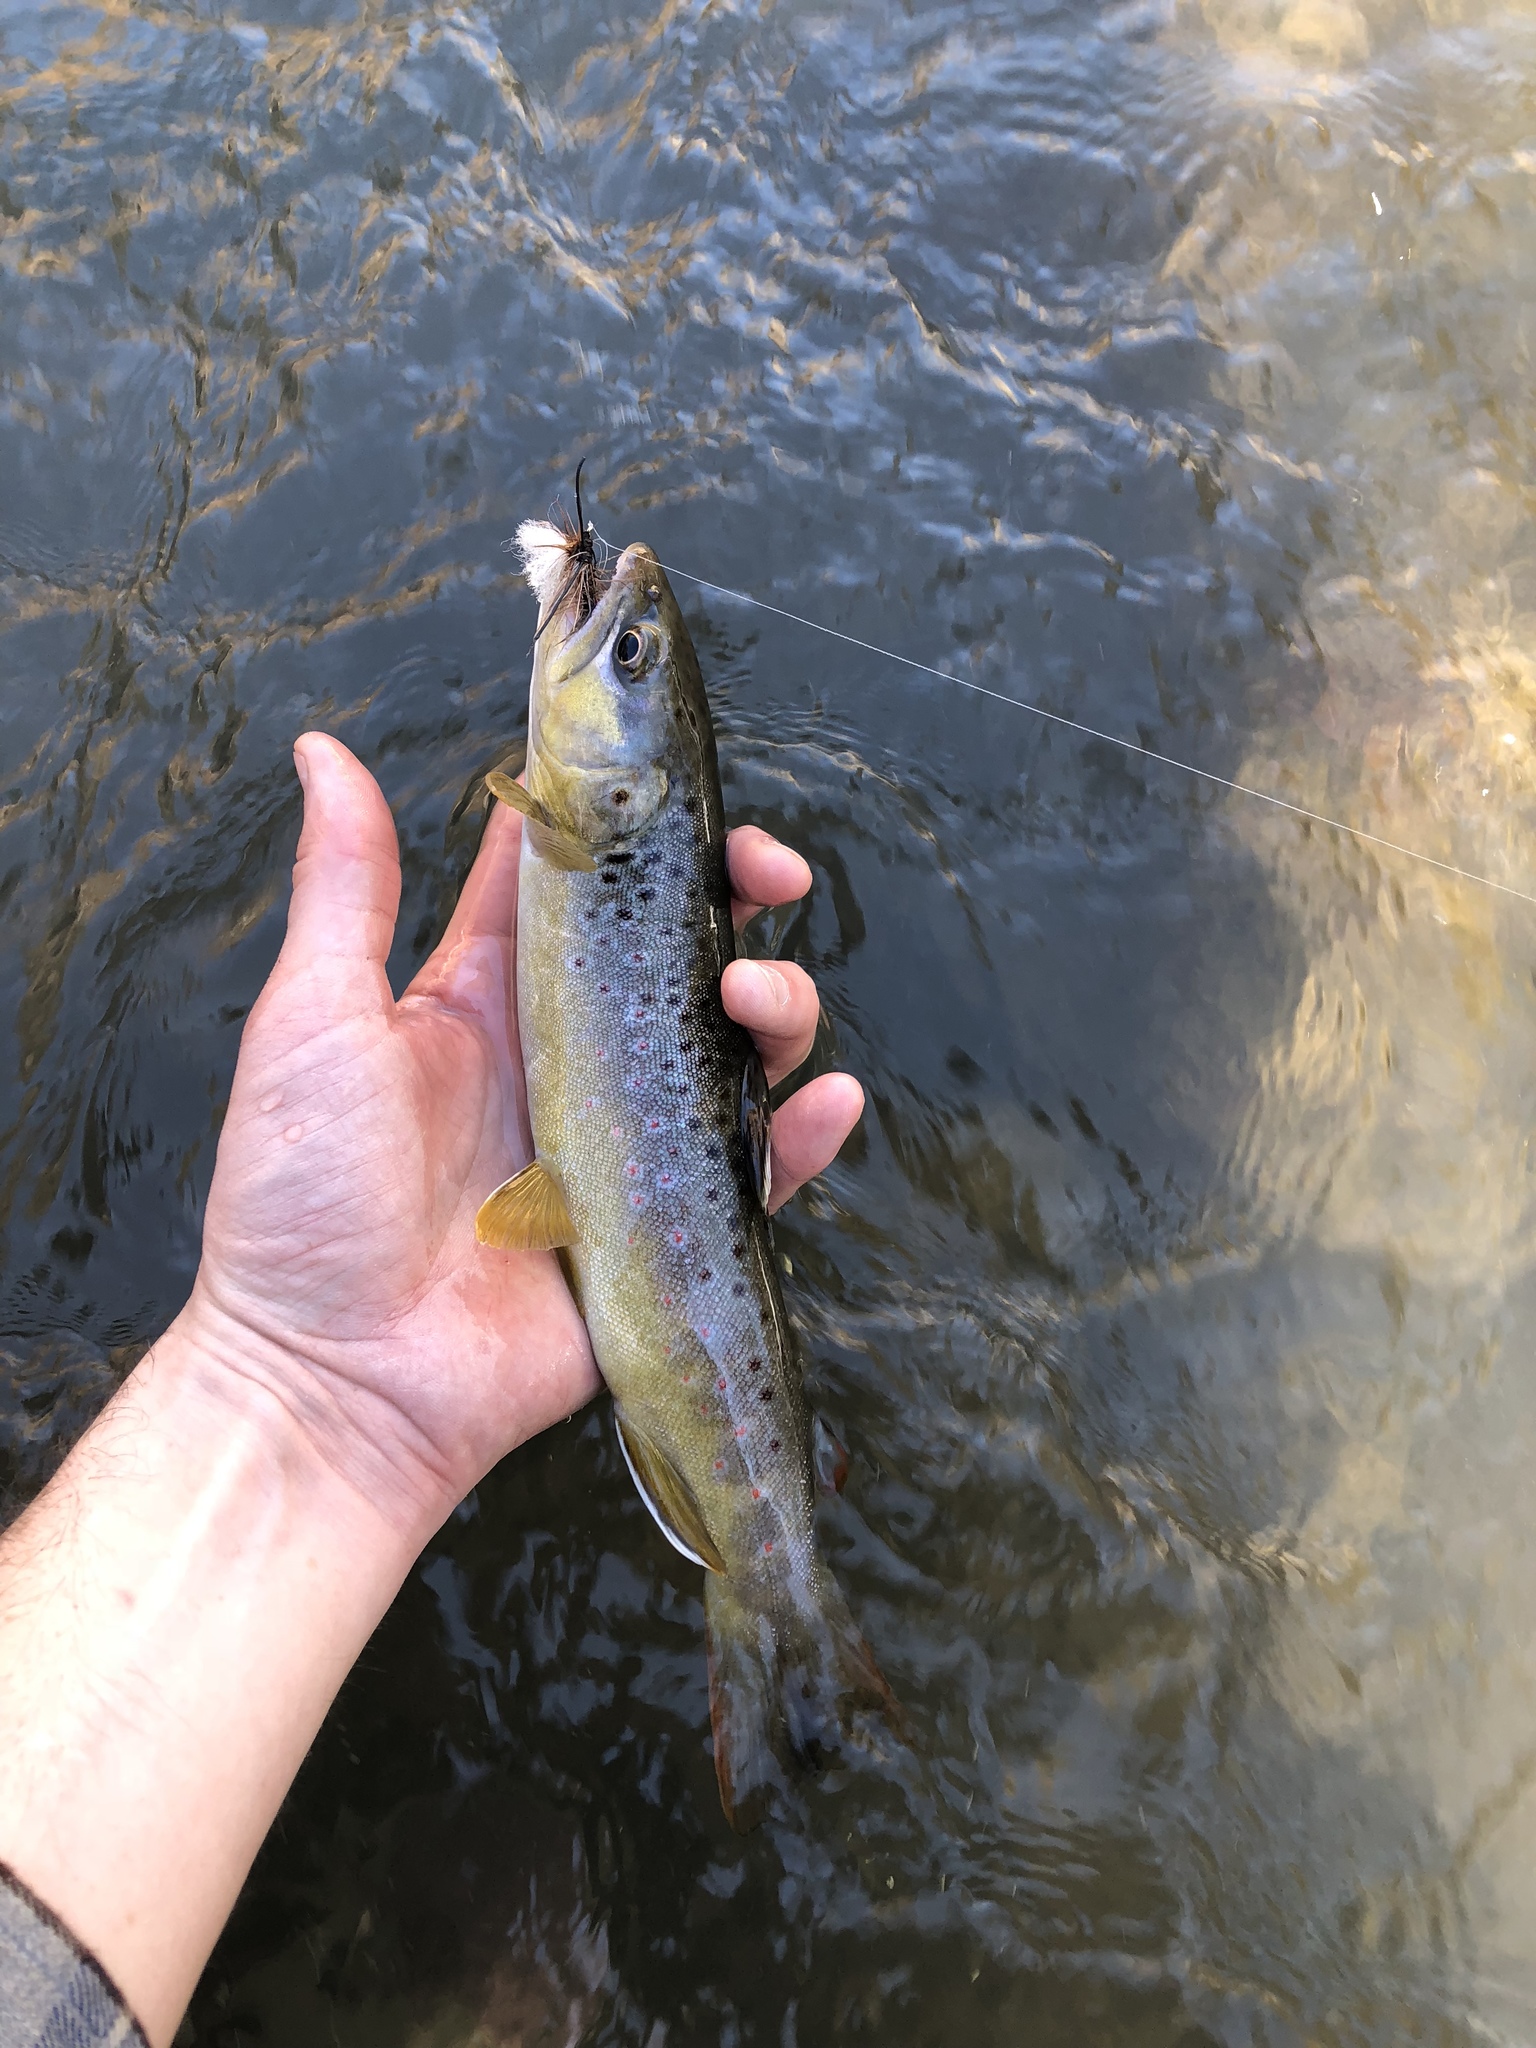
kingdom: Animalia
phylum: Chordata
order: Salmoniformes
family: Salmonidae
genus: Salmo
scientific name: Salmo trutta
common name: Brown trout
